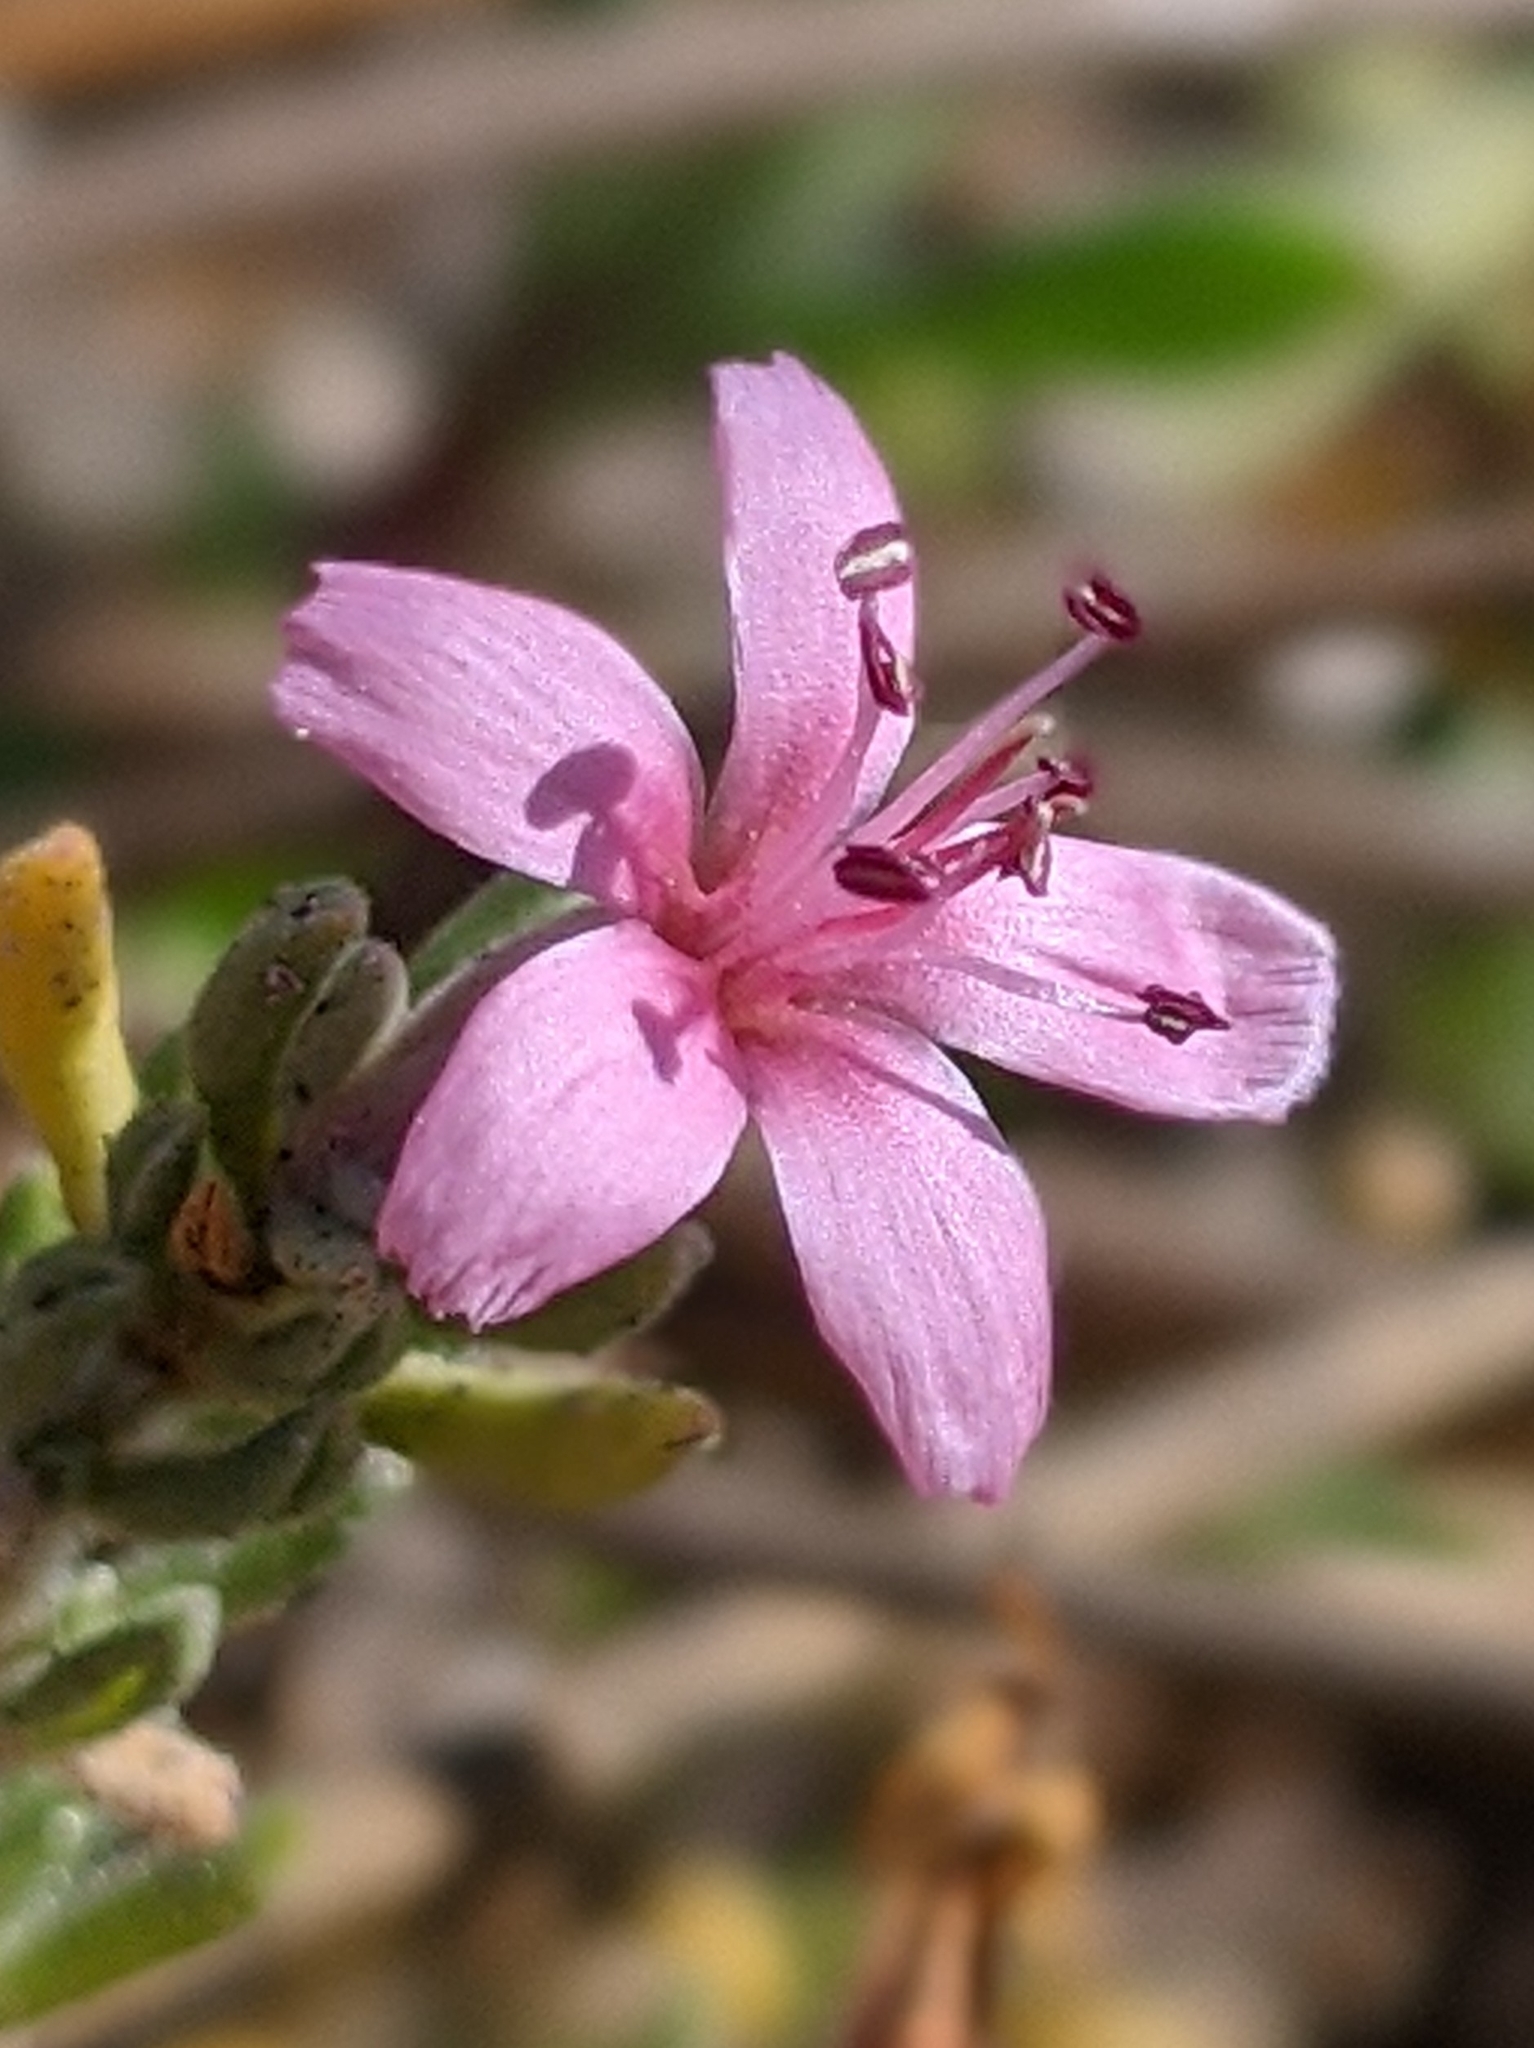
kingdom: Plantae
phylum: Tracheophyta
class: Magnoliopsida
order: Caryophyllales
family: Frankeniaceae
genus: Frankenia
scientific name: Frankenia salina
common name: Alkali seaheath
